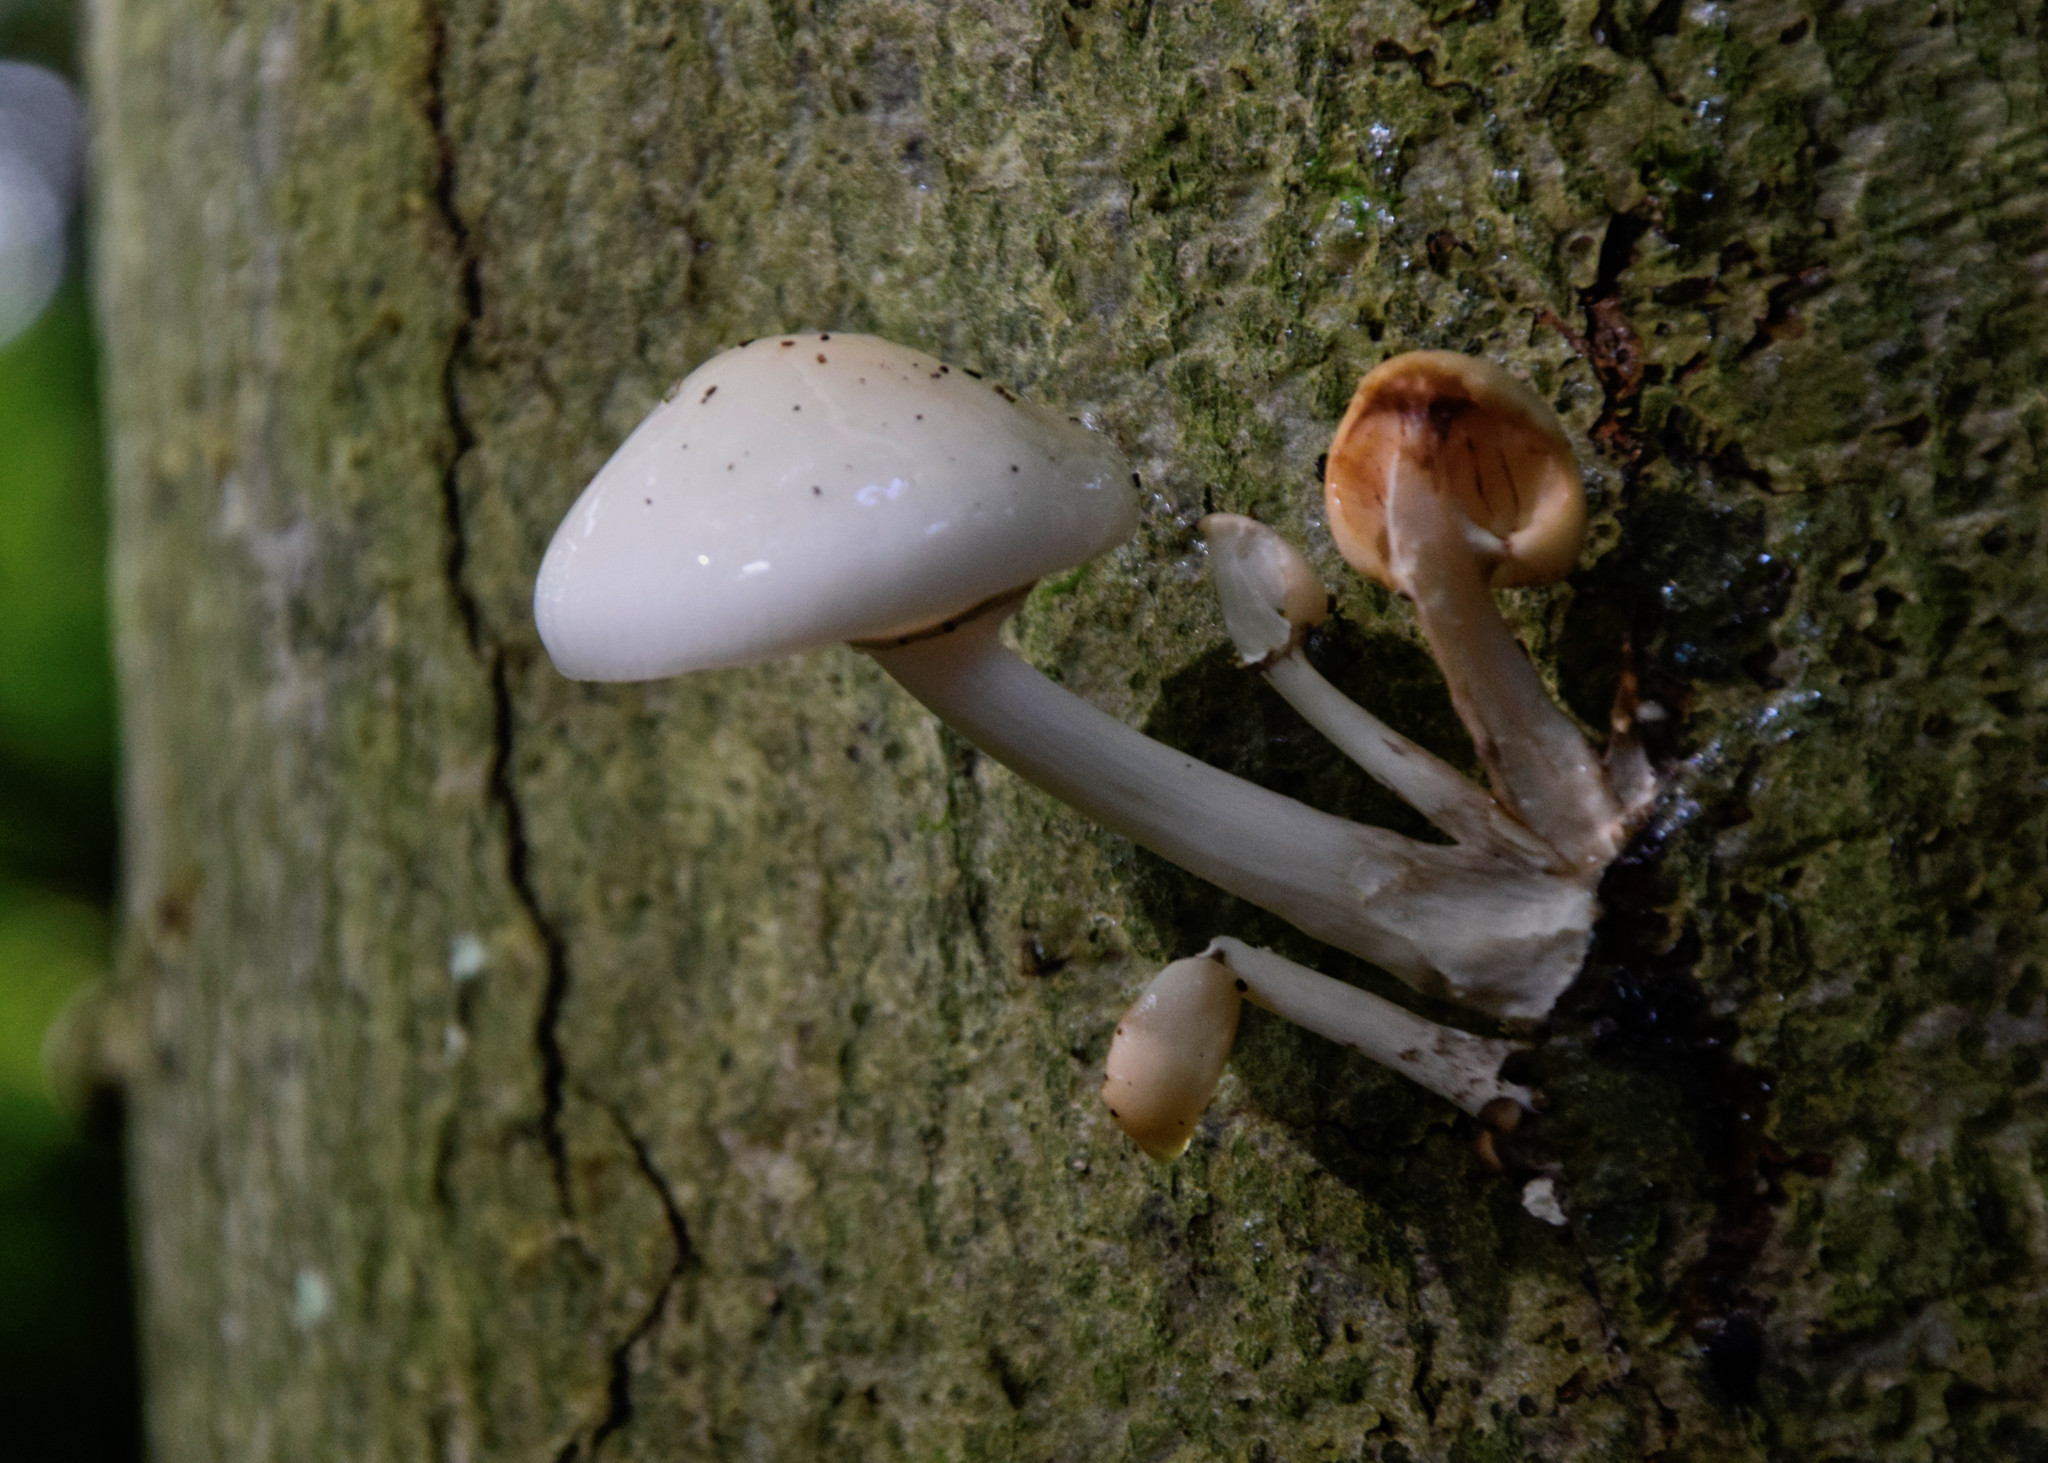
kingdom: Fungi
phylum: Basidiomycota
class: Agaricomycetes
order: Agaricales
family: Physalacriaceae
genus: Mucidula
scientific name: Mucidula mucida
